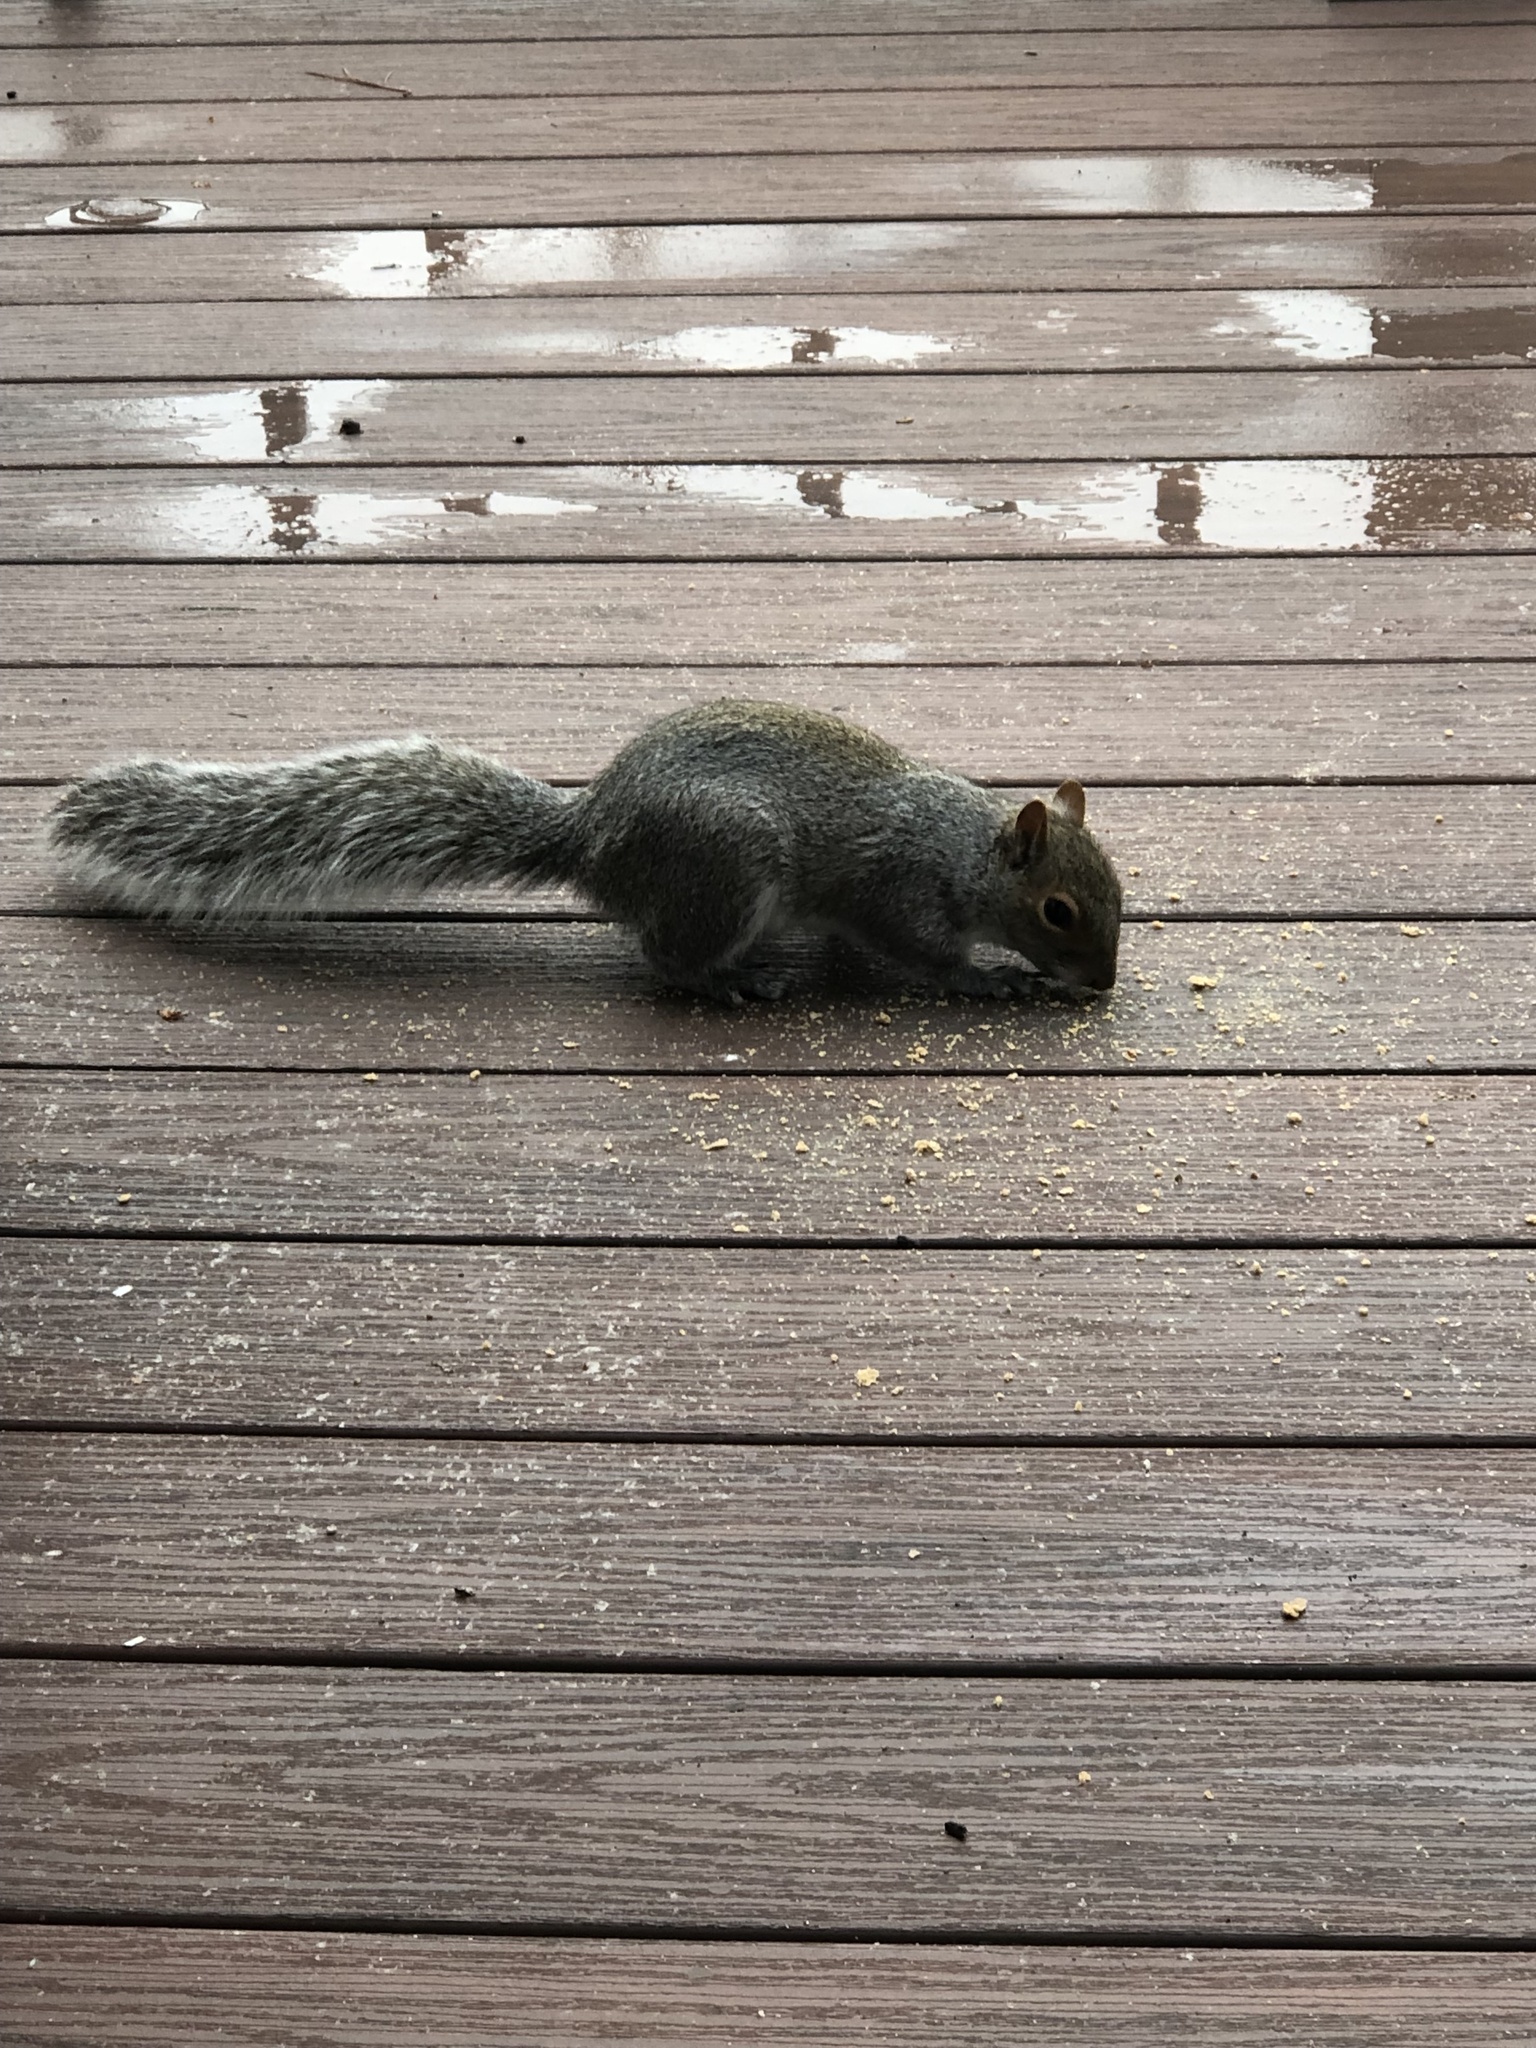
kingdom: Animalia
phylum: Chordata
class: Mammalia
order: Rodentia
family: Sciuridae
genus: Sciurus
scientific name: Sciurus carolinensis
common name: Eastern gray squirrel
